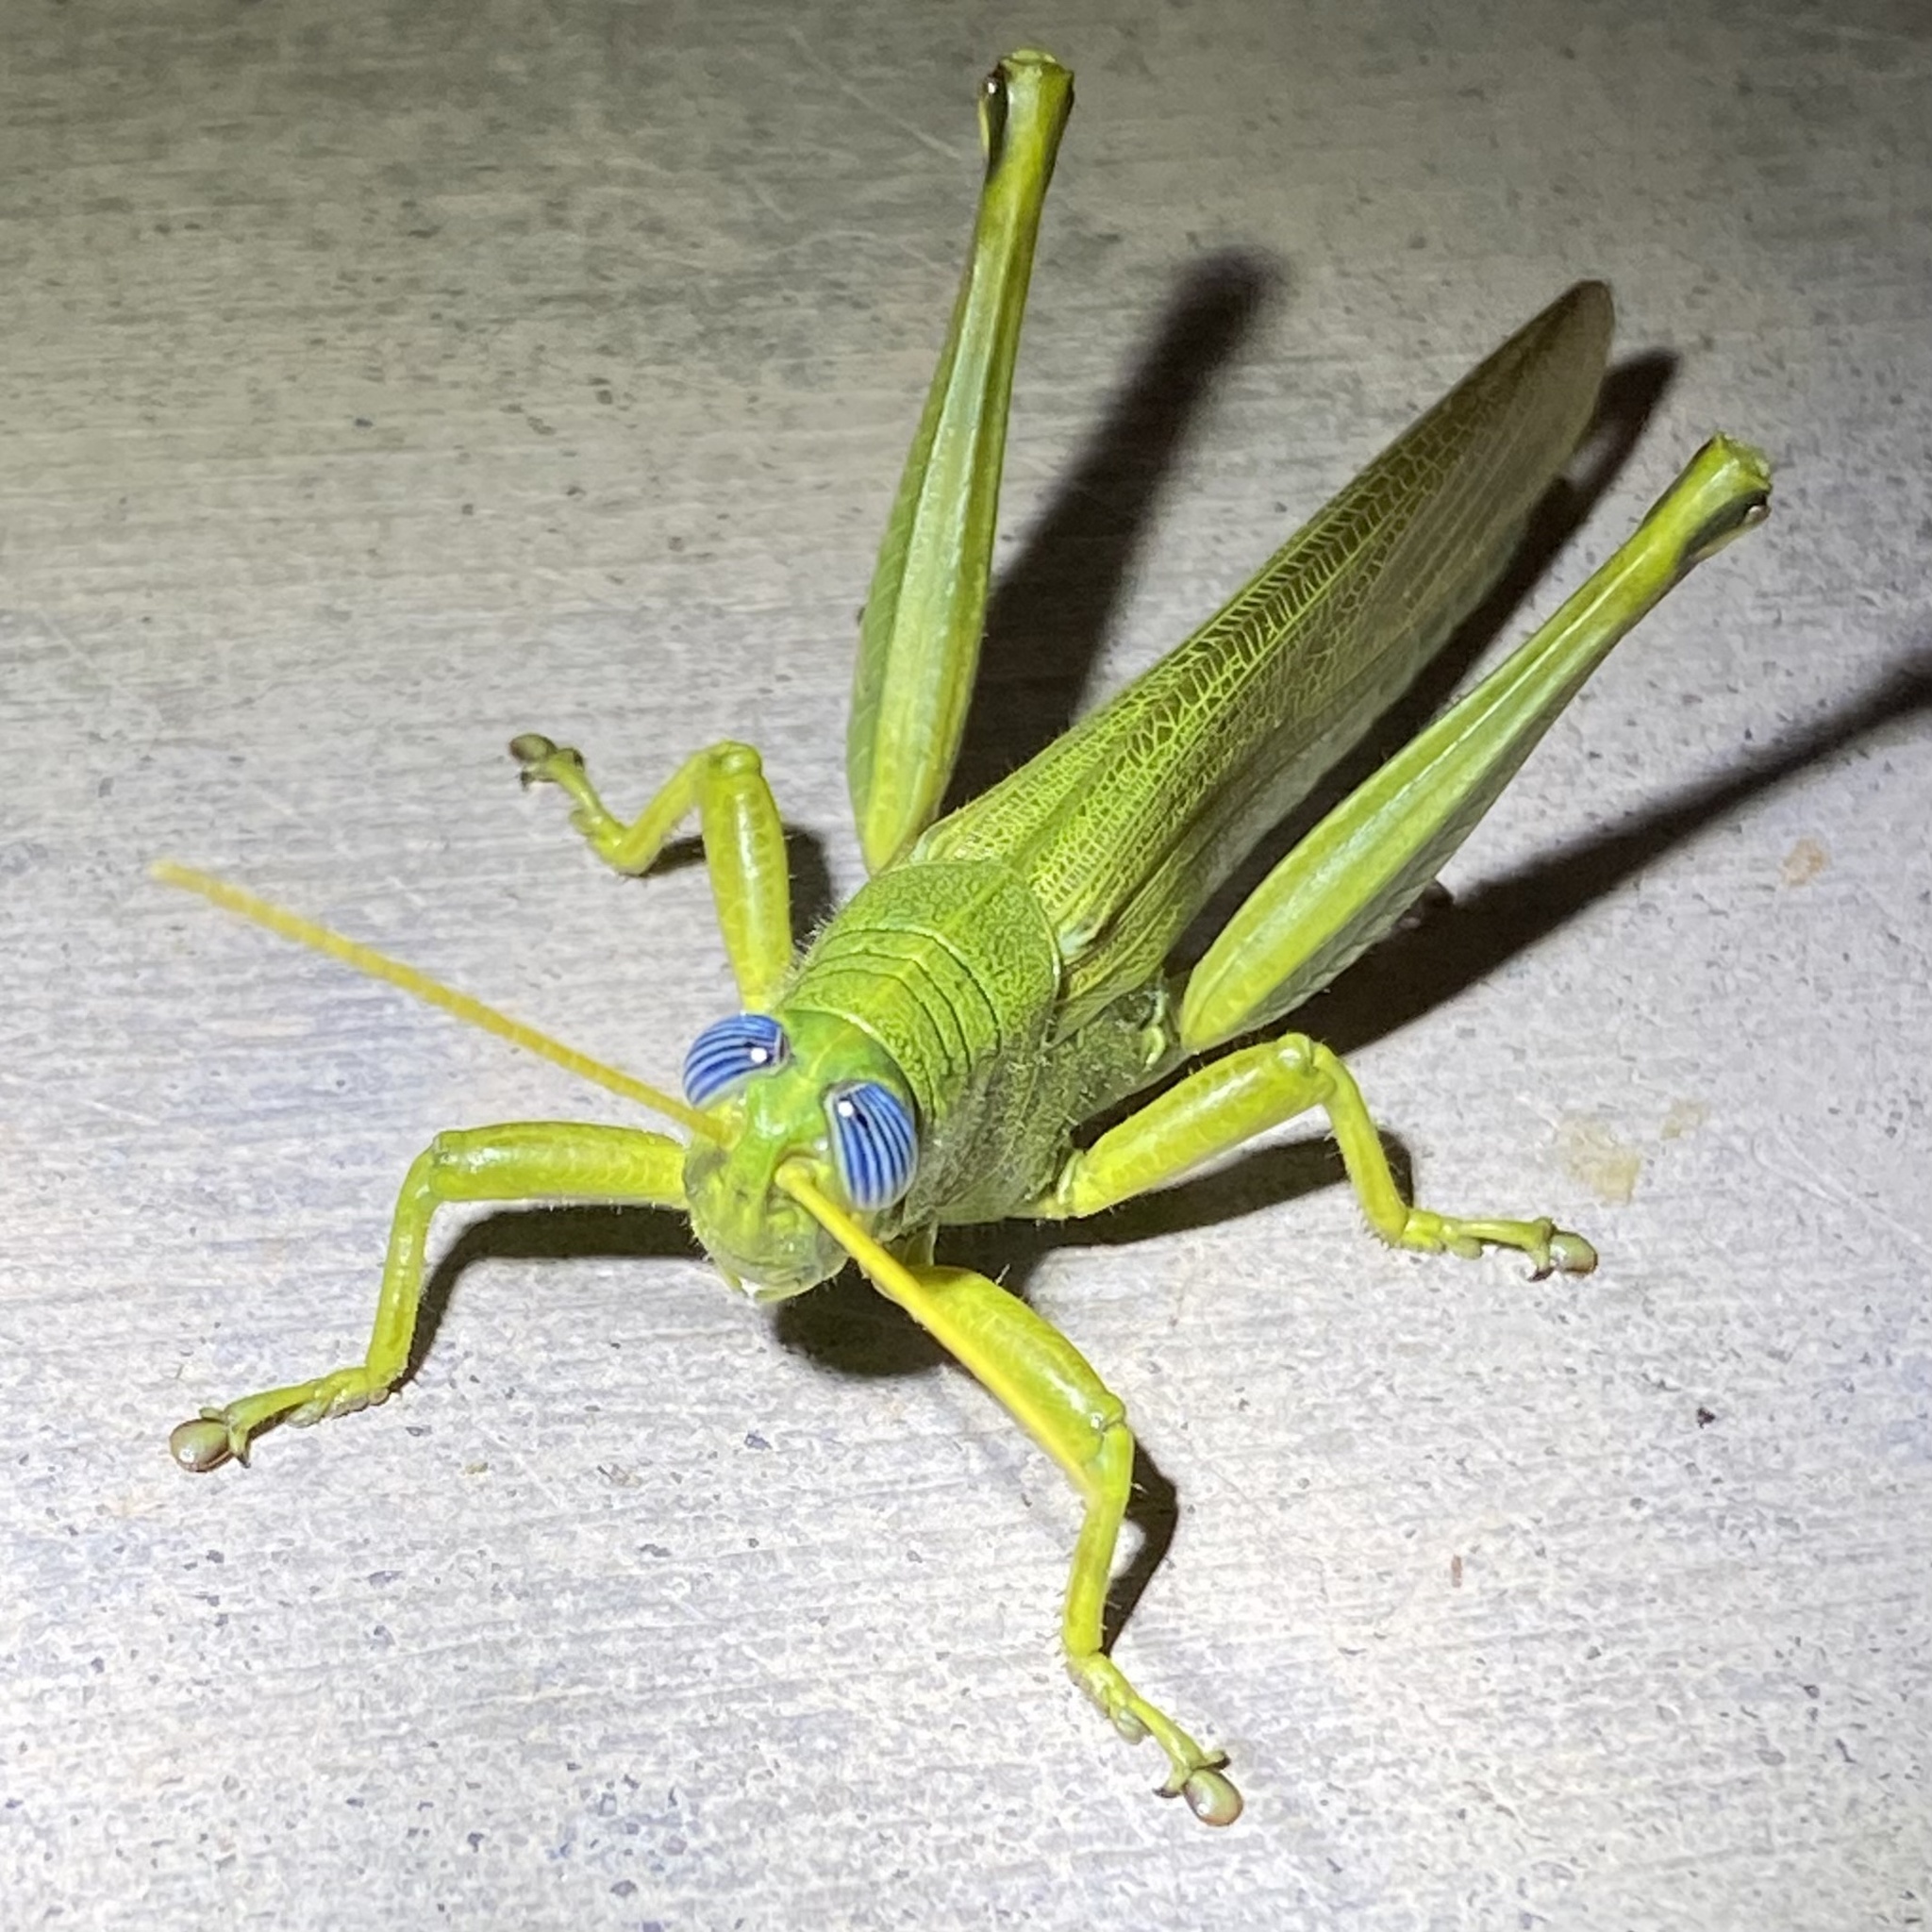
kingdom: Animalia
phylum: Arthropoda
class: Insecta
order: Orthoptera
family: Acrididae
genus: Schistocerca
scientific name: Schistocerca shoshone
